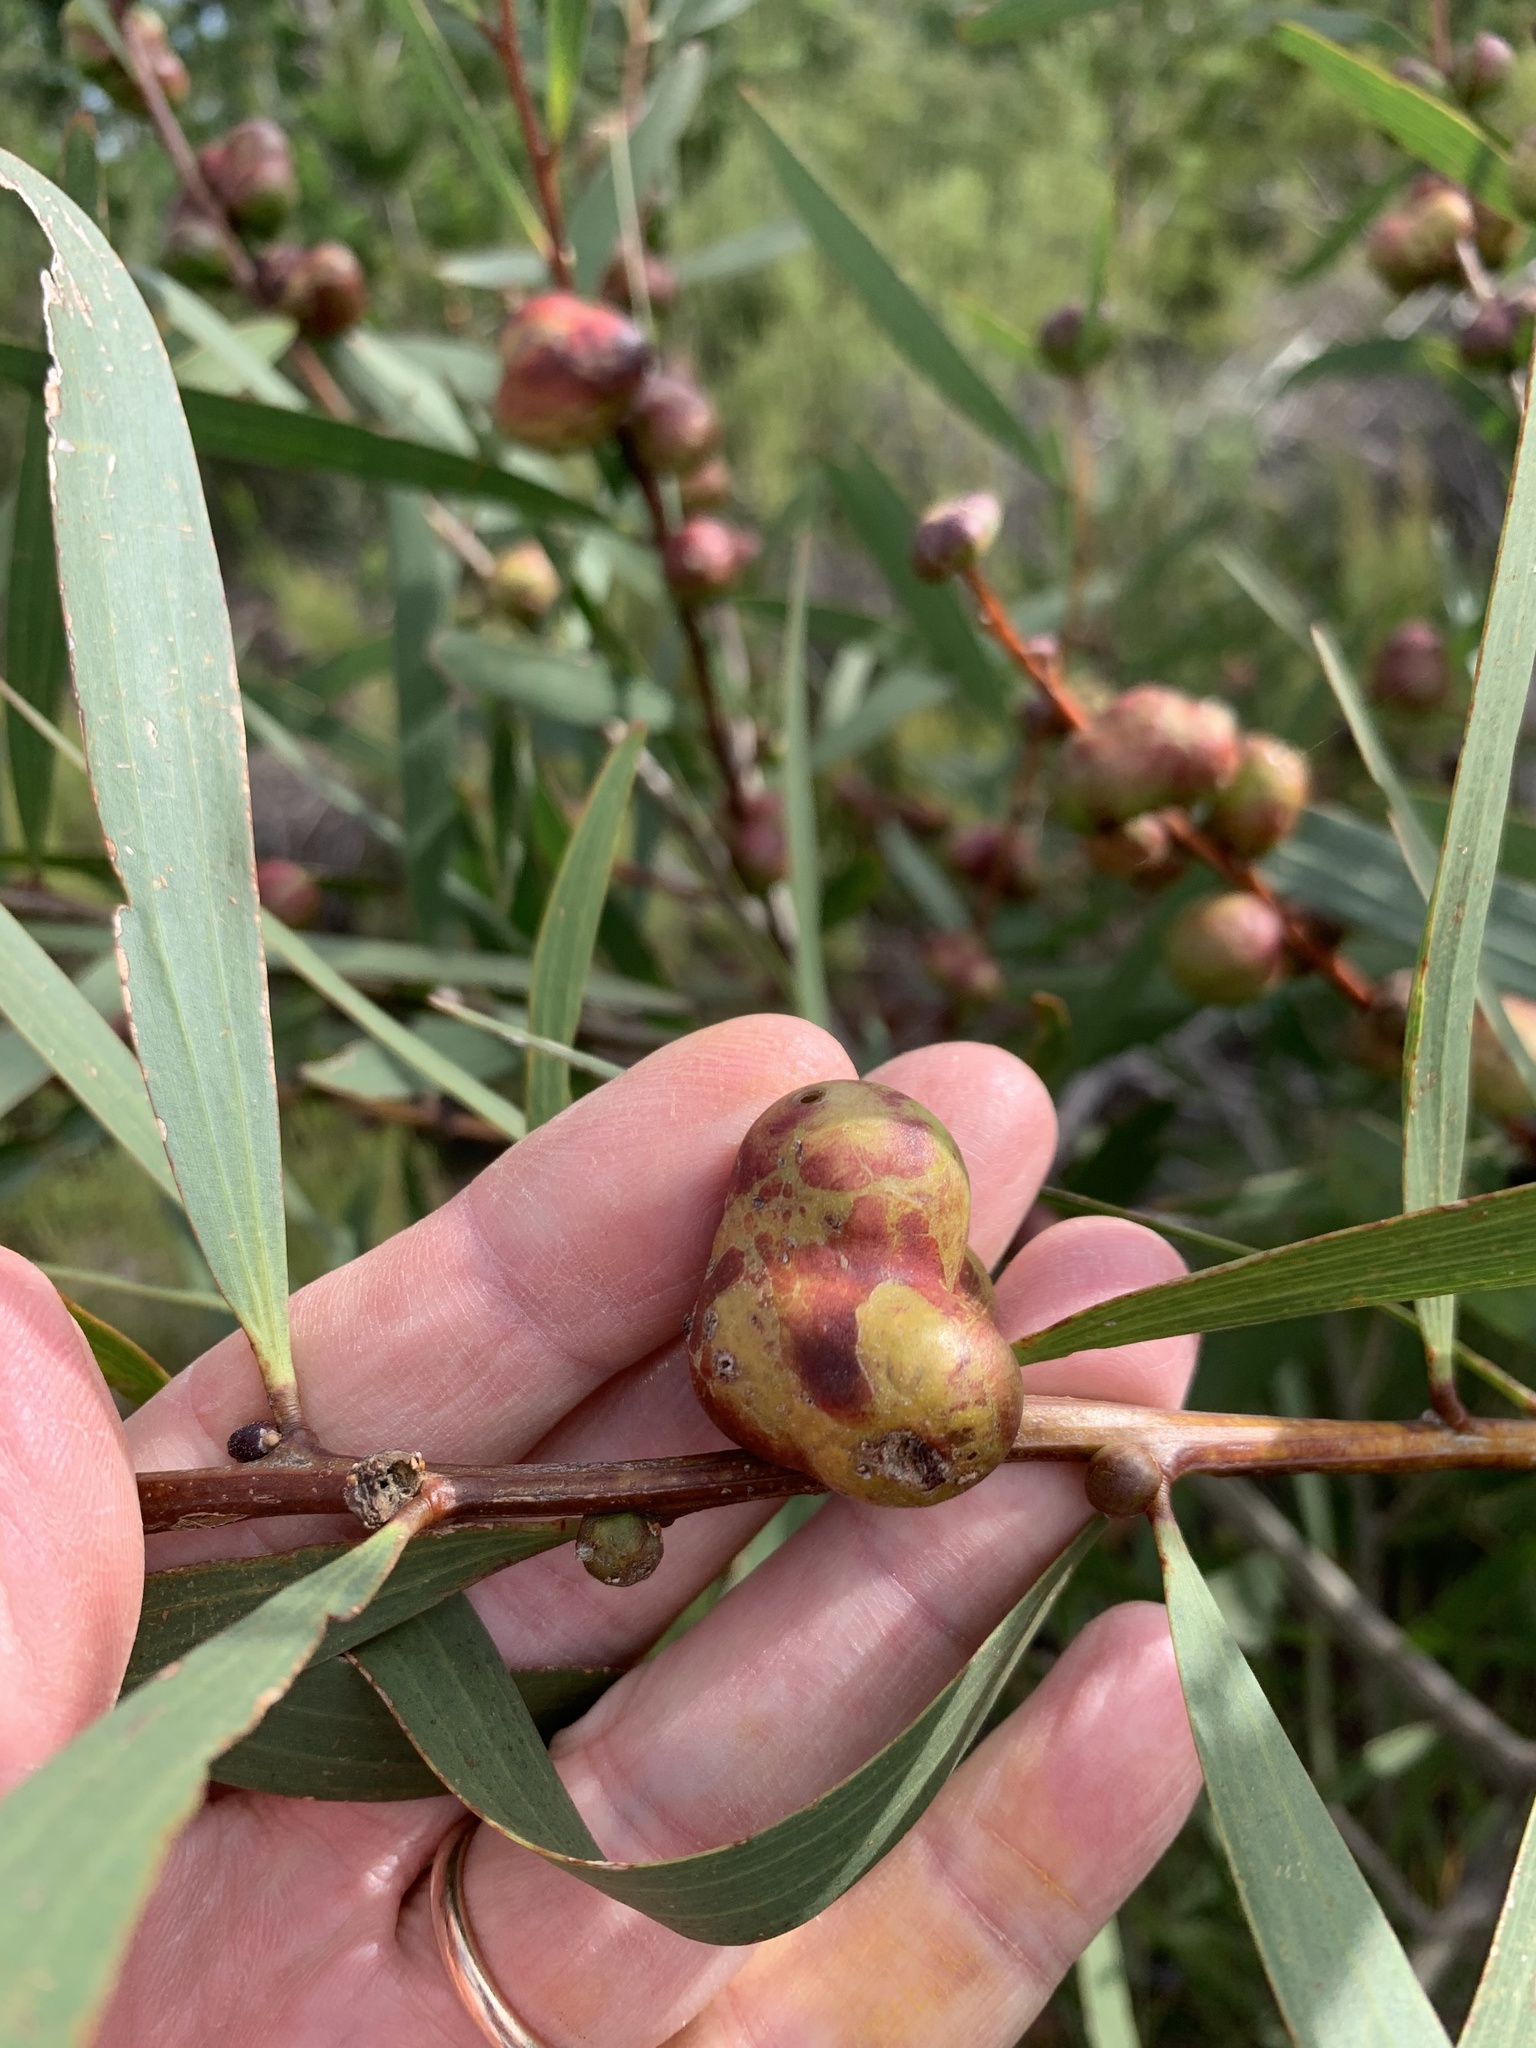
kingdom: Animalia
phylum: Arthropoda
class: Insecta
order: Hymenoptera
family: Pteromalidae
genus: Trichilogaster
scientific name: Trichilogaster acaciaelongifoliae
